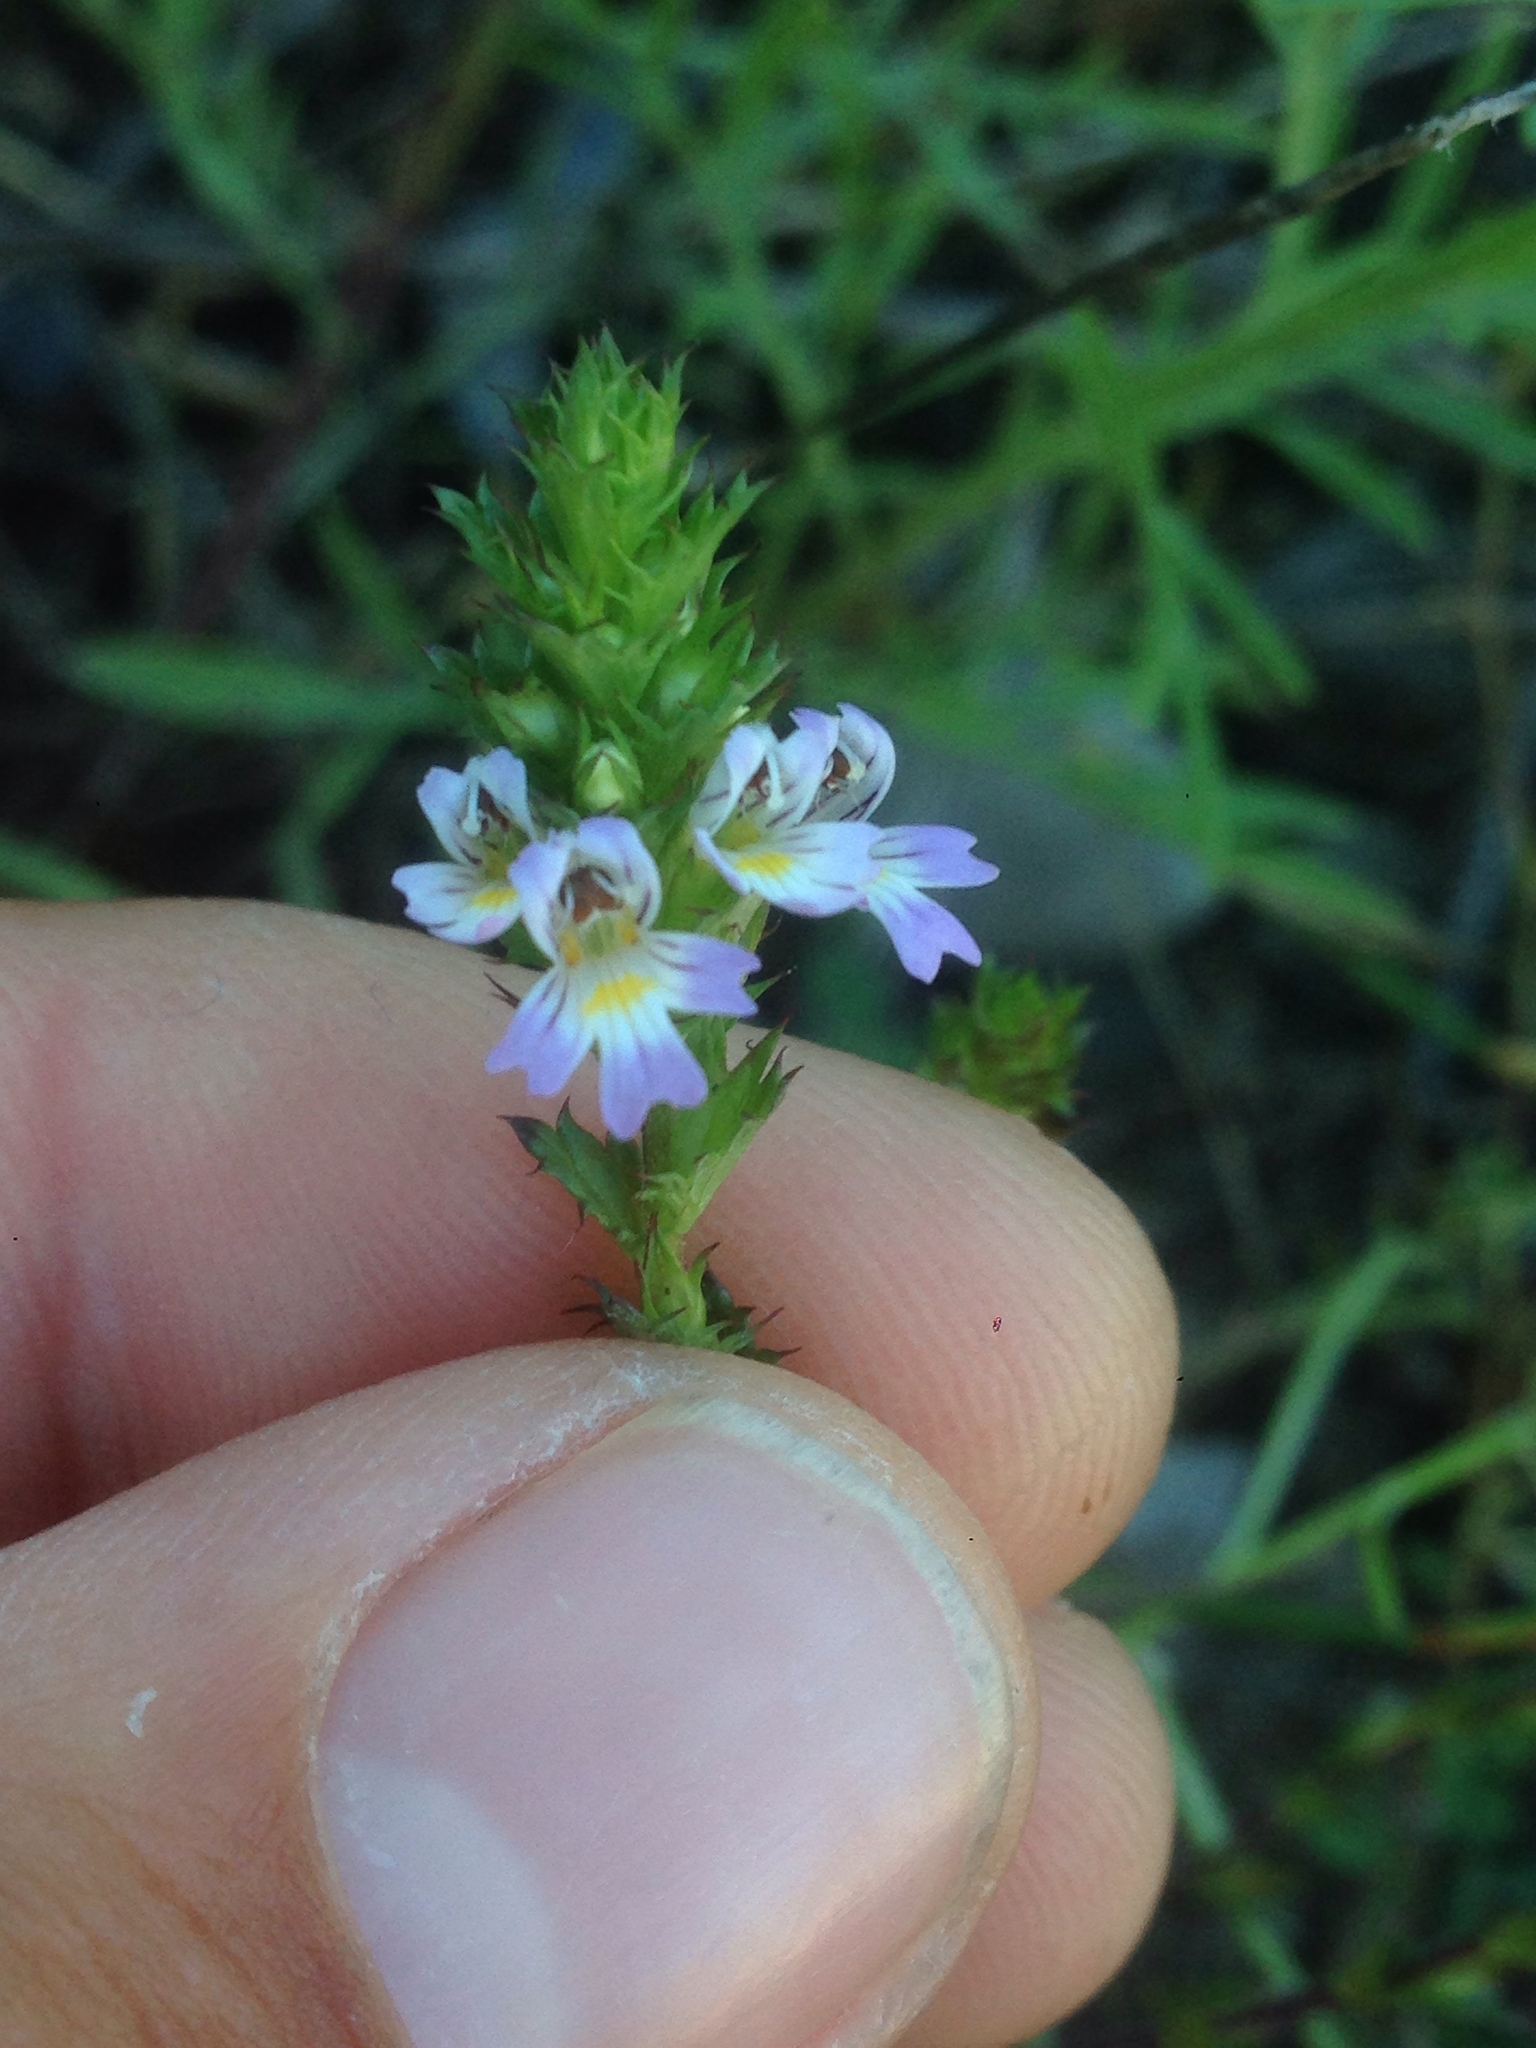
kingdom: Plantae
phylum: Tracheophyta
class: Magnoliopsida
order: Lamiales
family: Orobanchaceae
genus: Euphrasia
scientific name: Euphrasia stricta
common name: Drug eyebright
